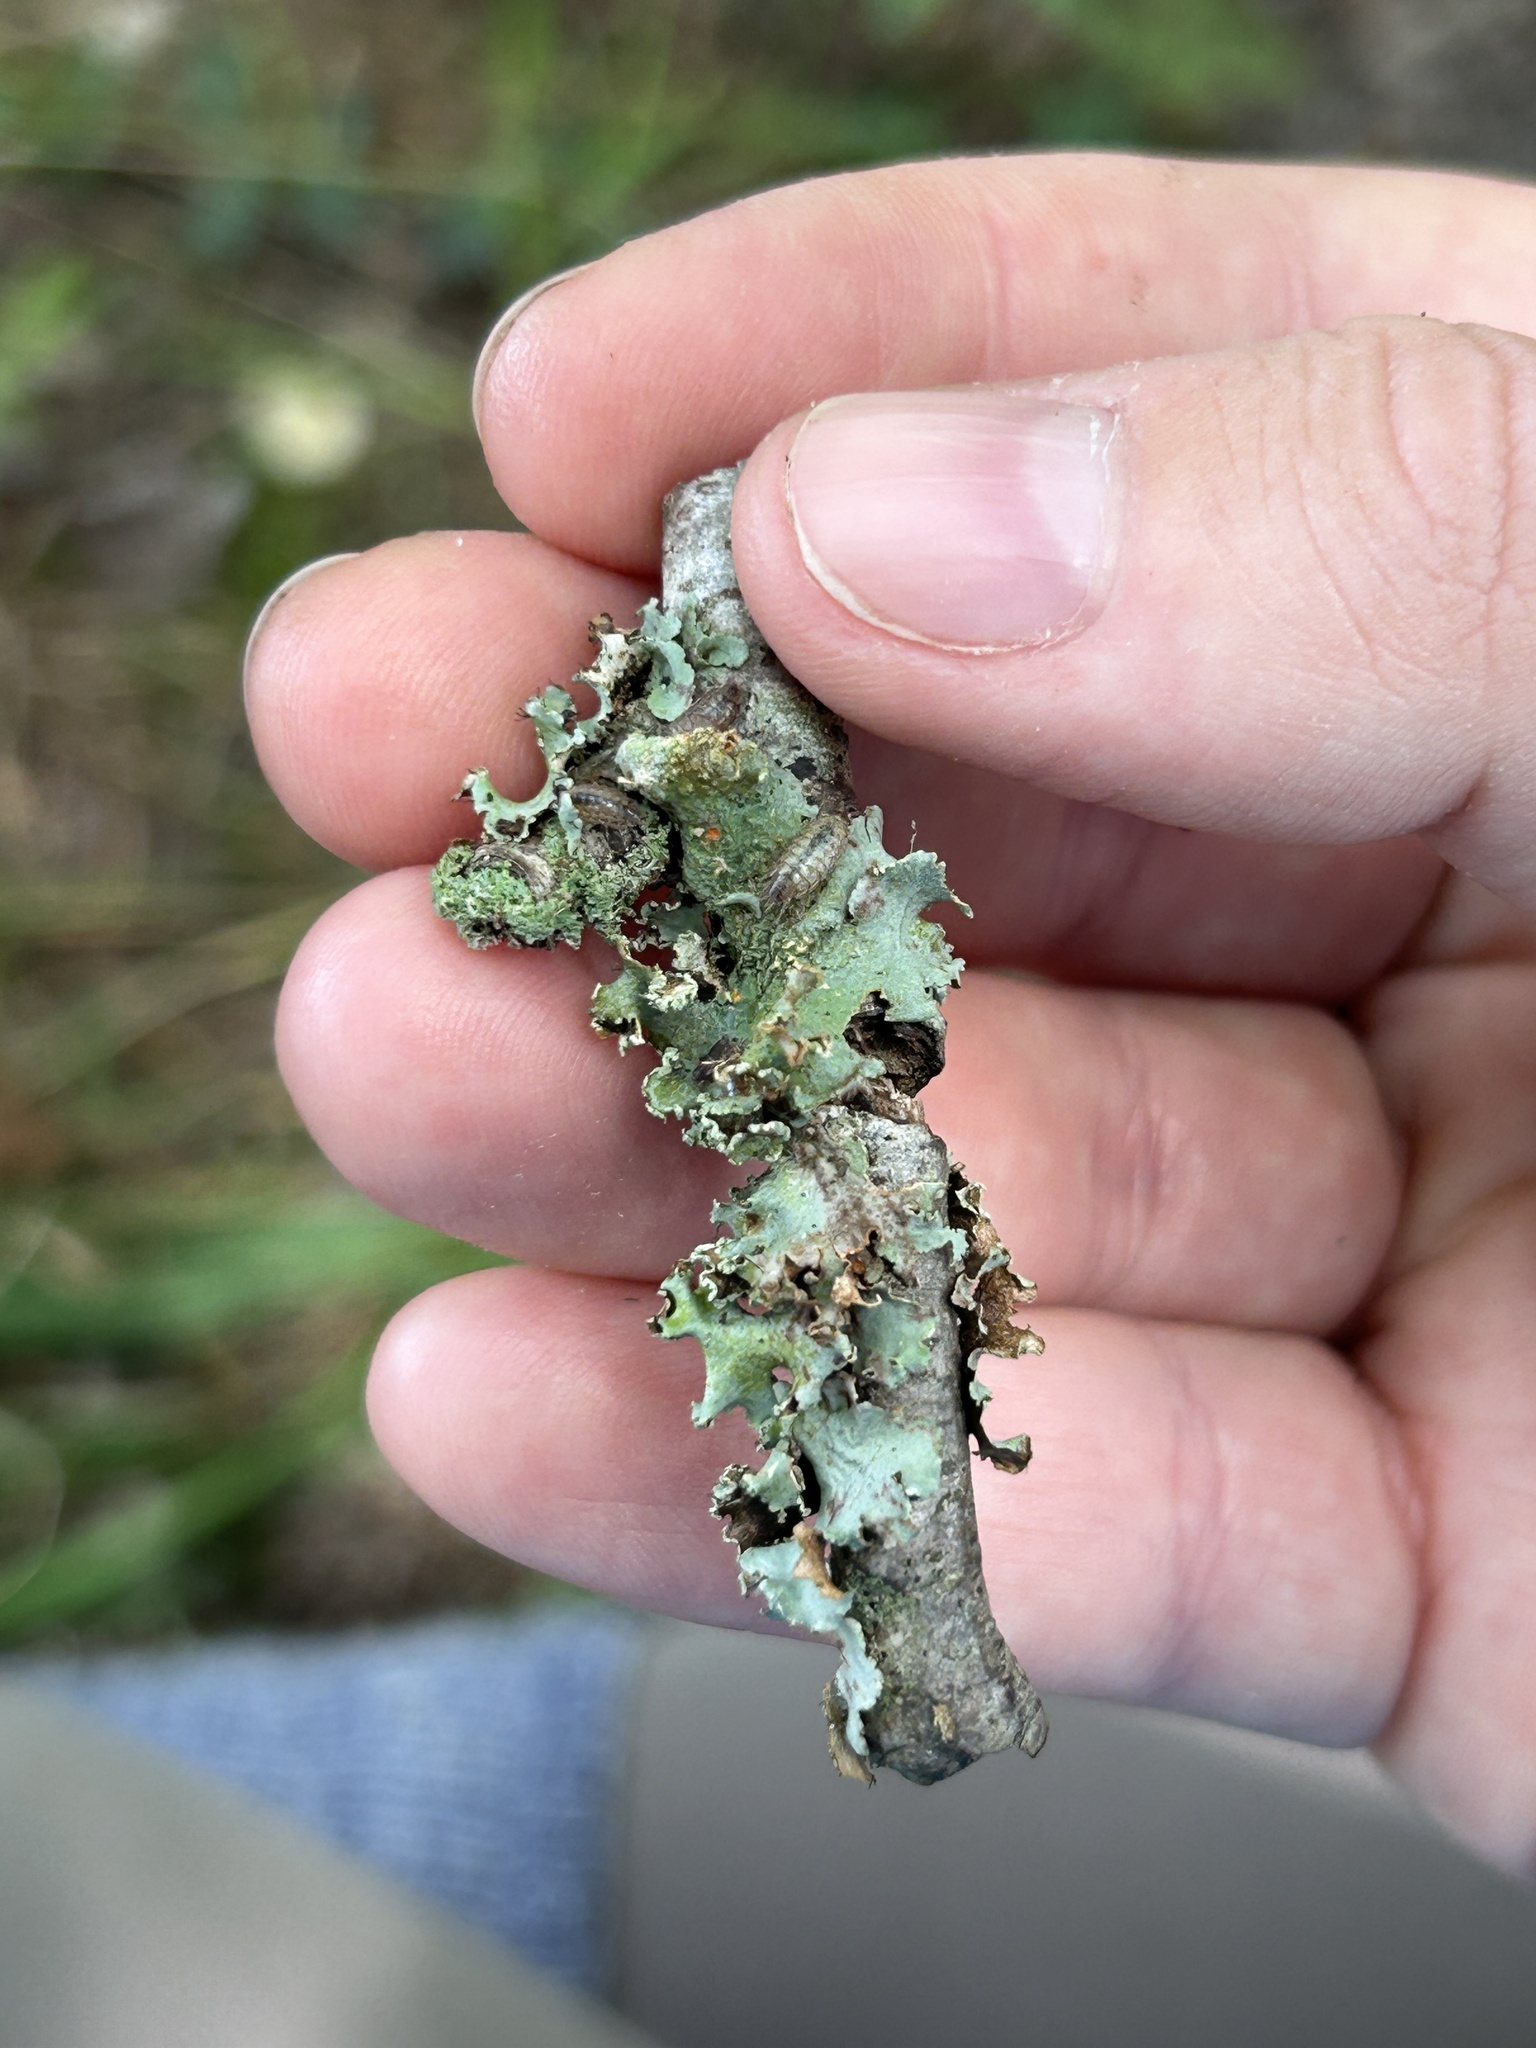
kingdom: Animalia
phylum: Arthropoda
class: Malacostraca
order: Isopoda
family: Philosciidae
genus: Philoscia
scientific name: Philoscia muscorum
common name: Common striped woodlouse
